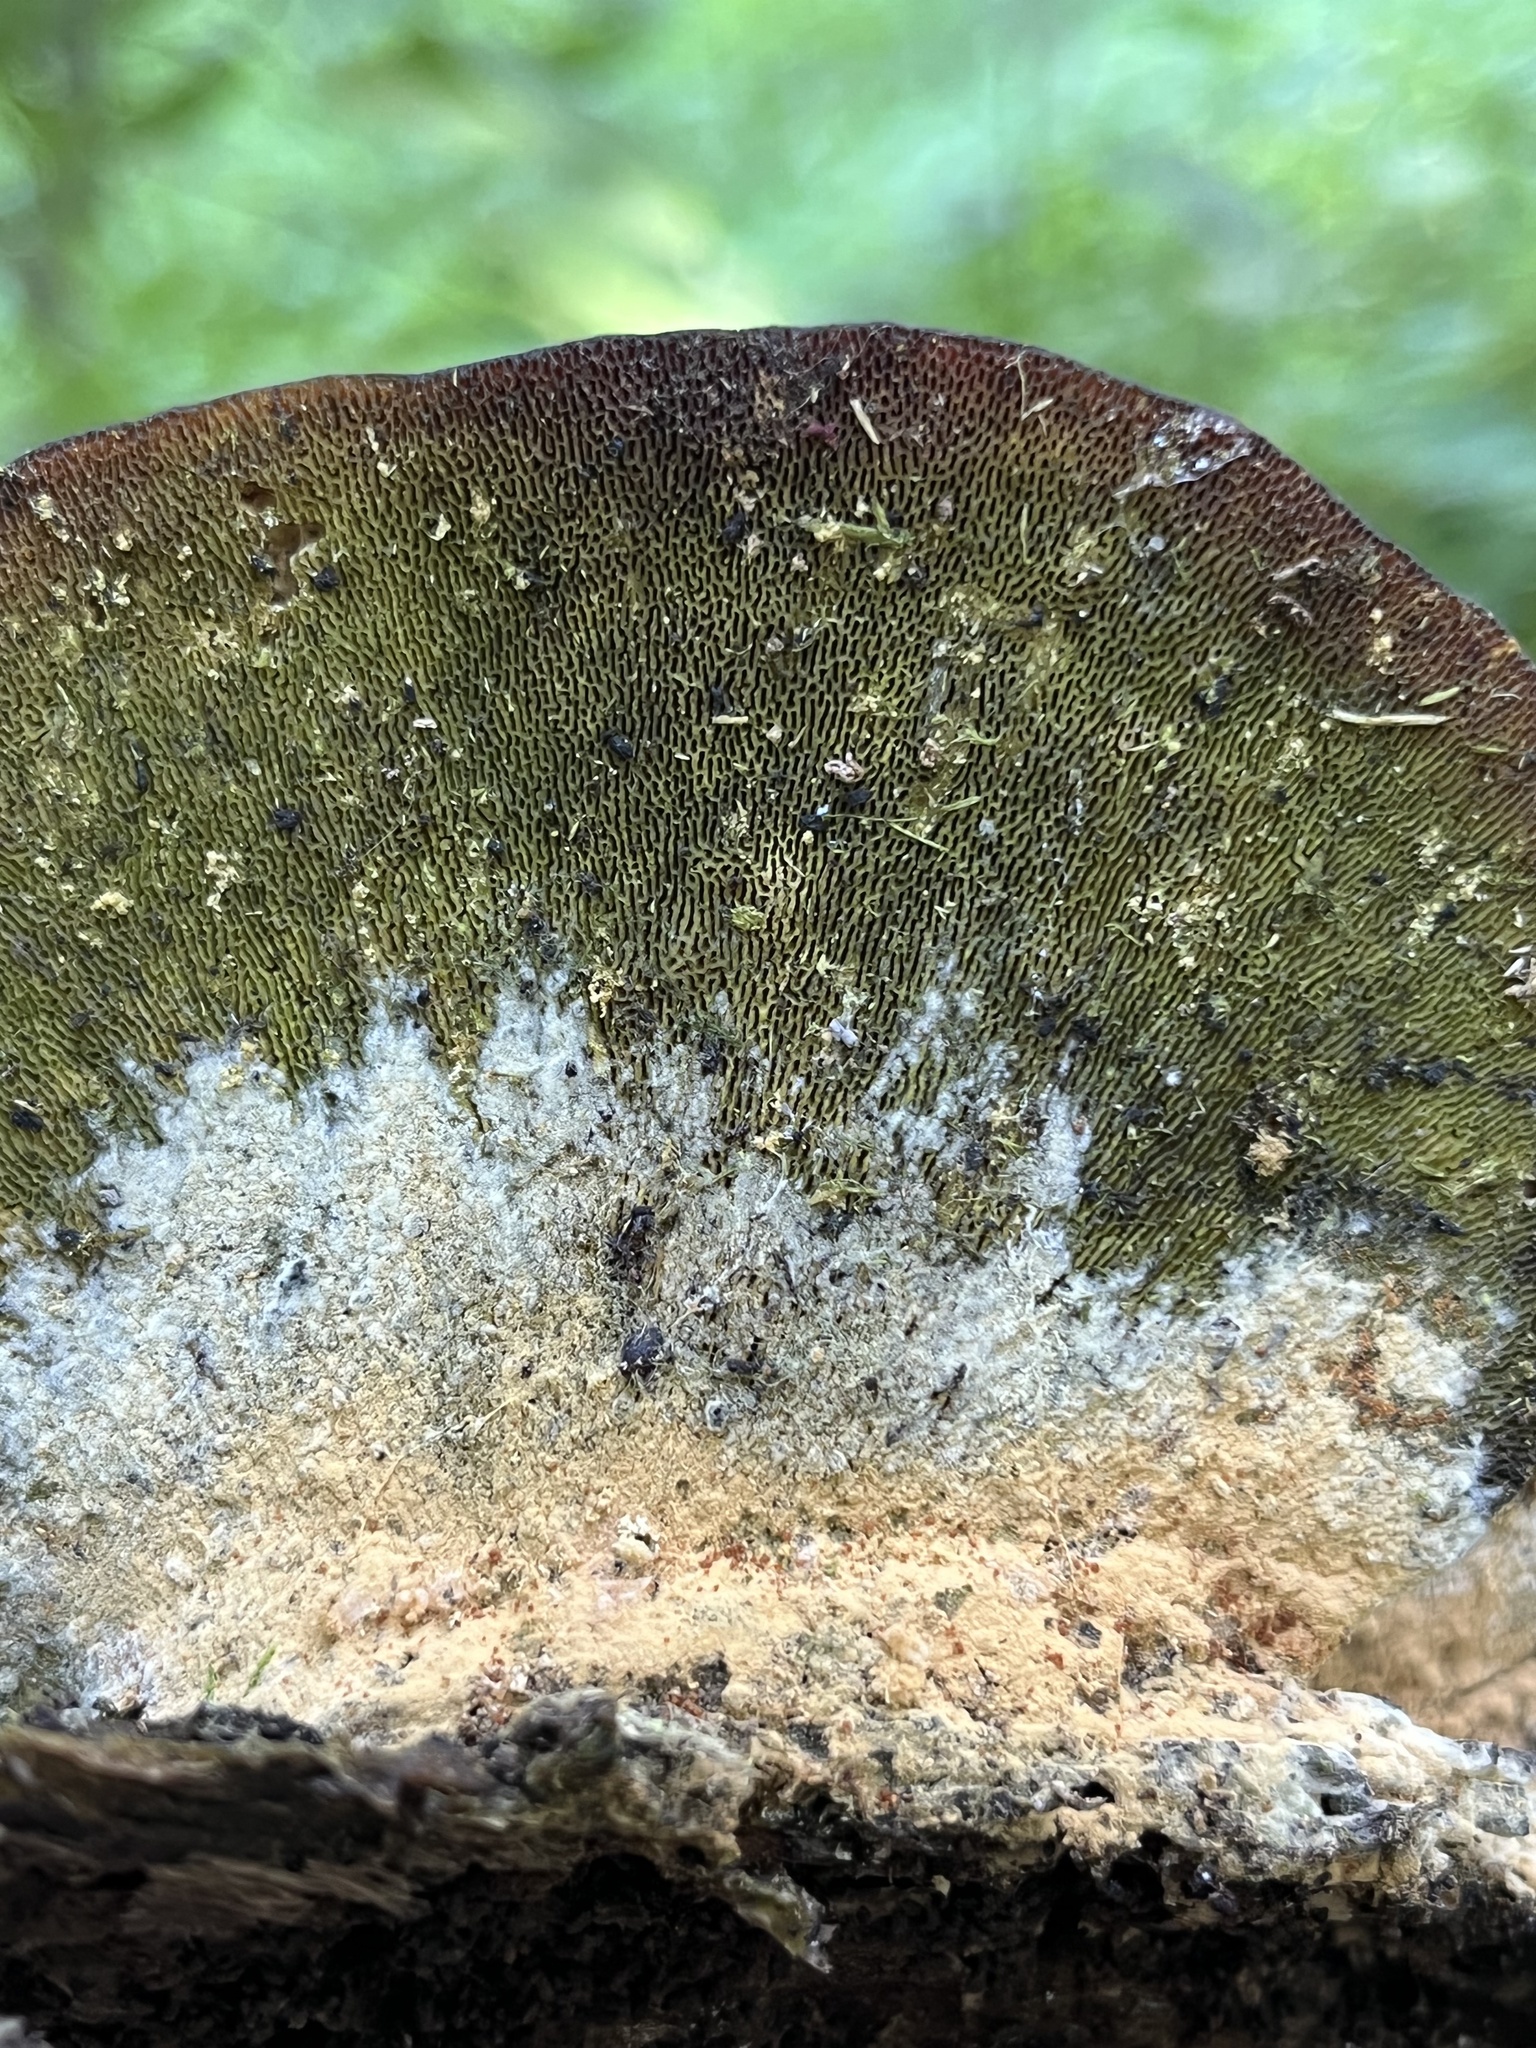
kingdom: Fungi
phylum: Basidiomycota
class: Agaricomycetes
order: Polyporales
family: Polyporaceae
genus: Trametes
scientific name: Trametes gibbosa
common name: Lumpy bracket
